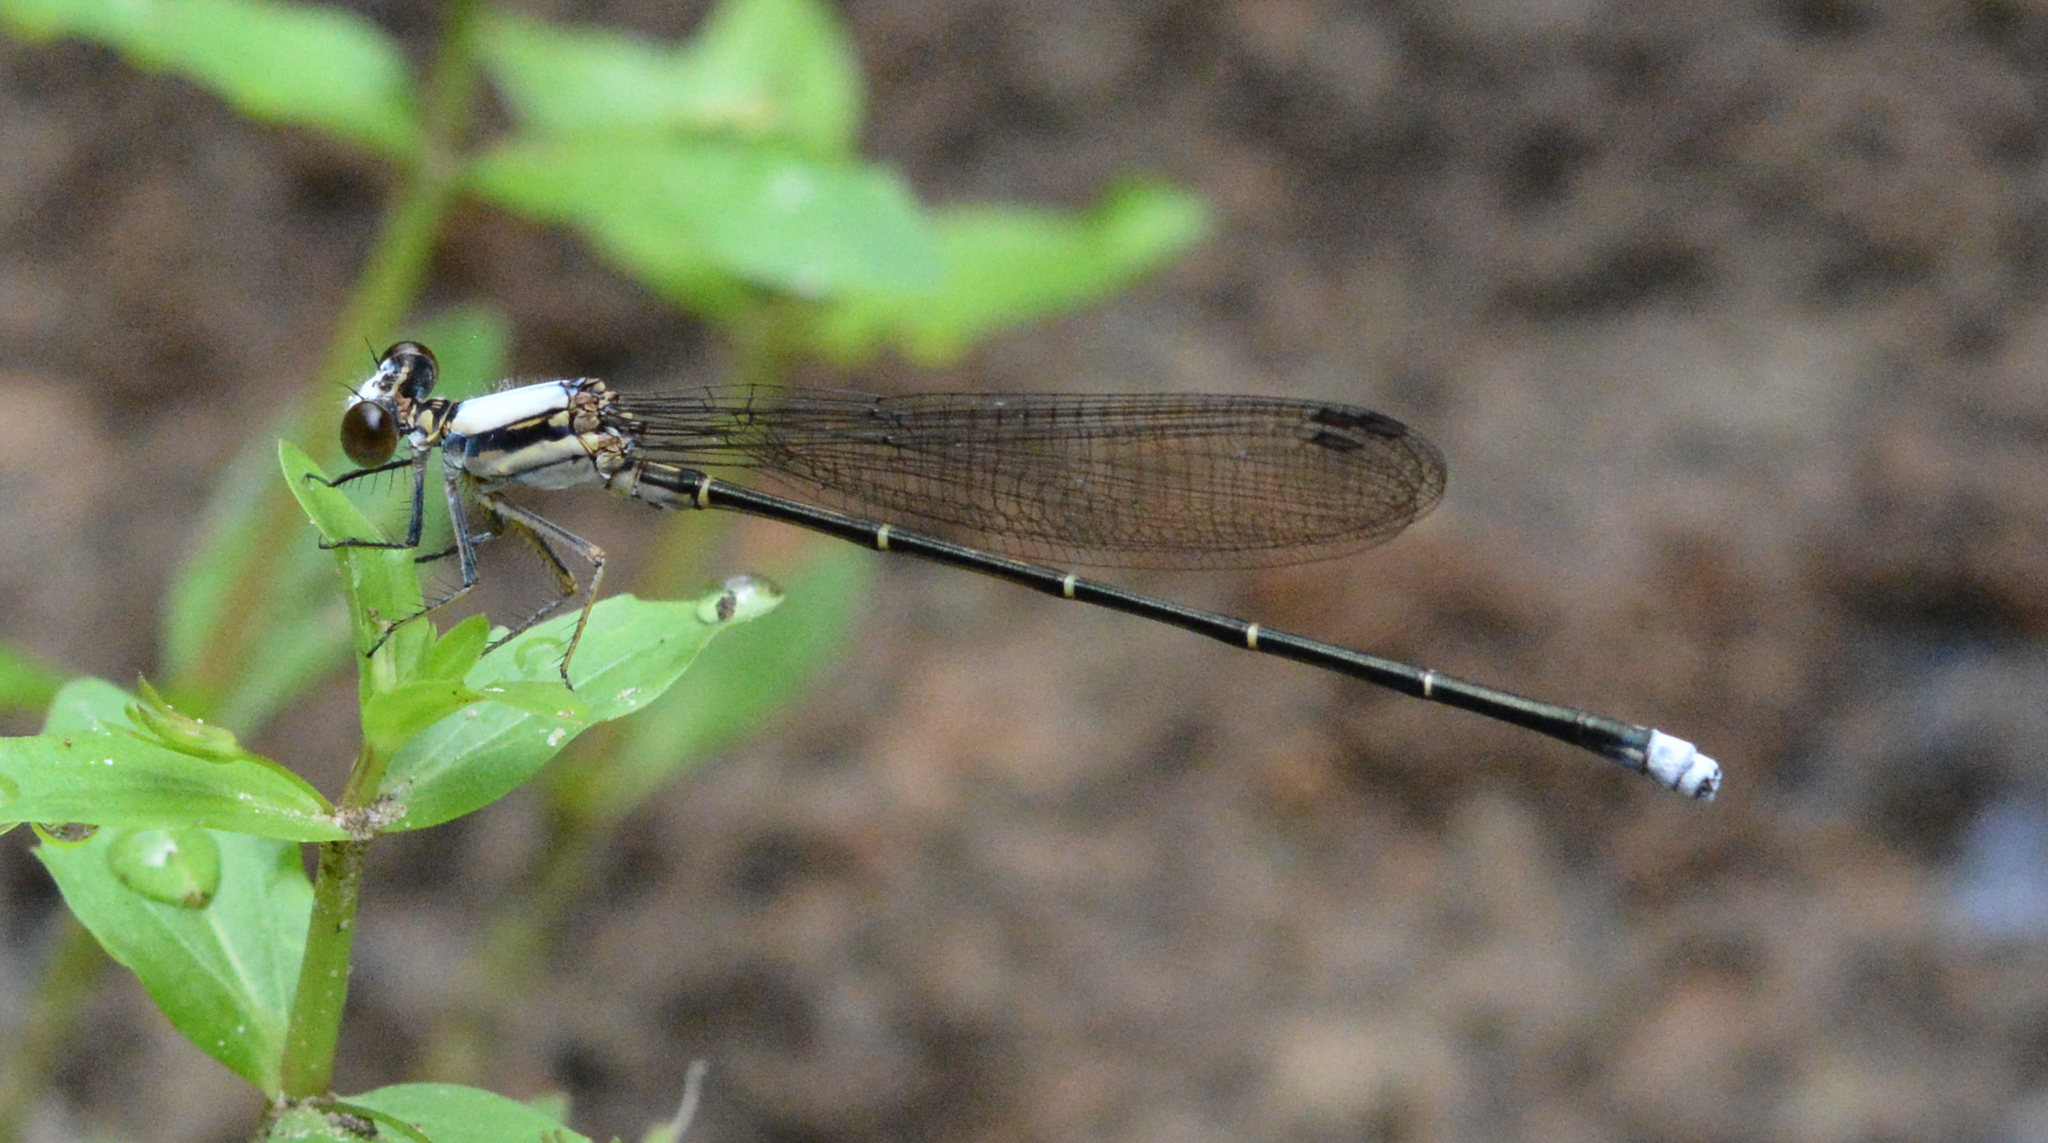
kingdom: Animalia
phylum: Arthropoda
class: Insecta
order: Odonata
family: Coenagrionidae
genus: Argia
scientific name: Argia moesta
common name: Powdered dancer
